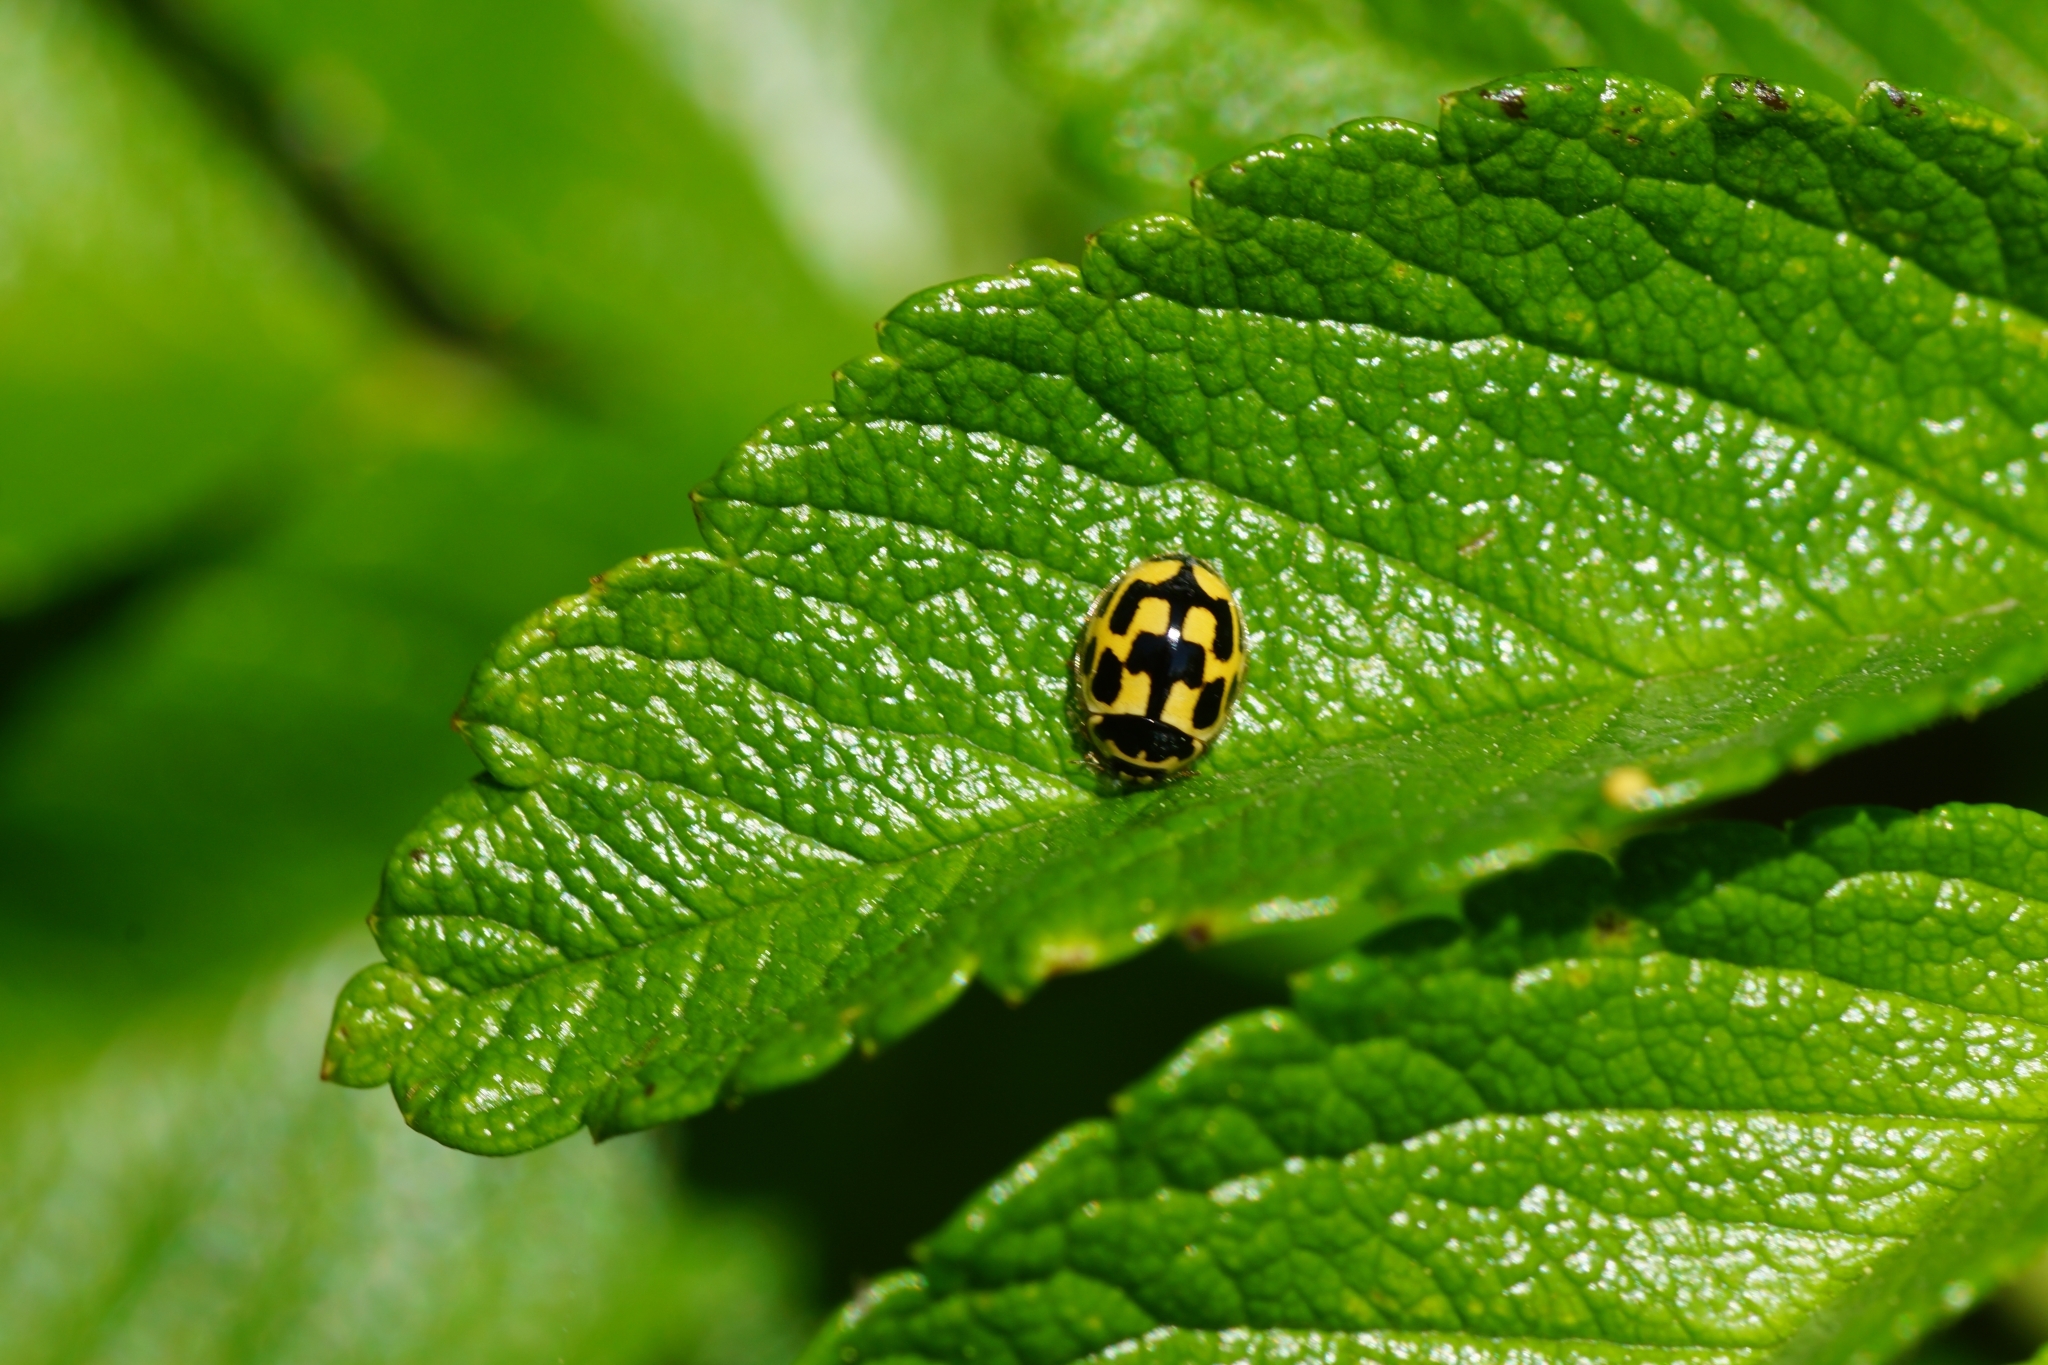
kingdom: Animalia
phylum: Arthropoda
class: Insecta
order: Coleoptera
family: Coccinellidae
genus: Propylaea
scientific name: Propylaea quatuordecimpunctata
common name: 14-spotted ladybird beetle
